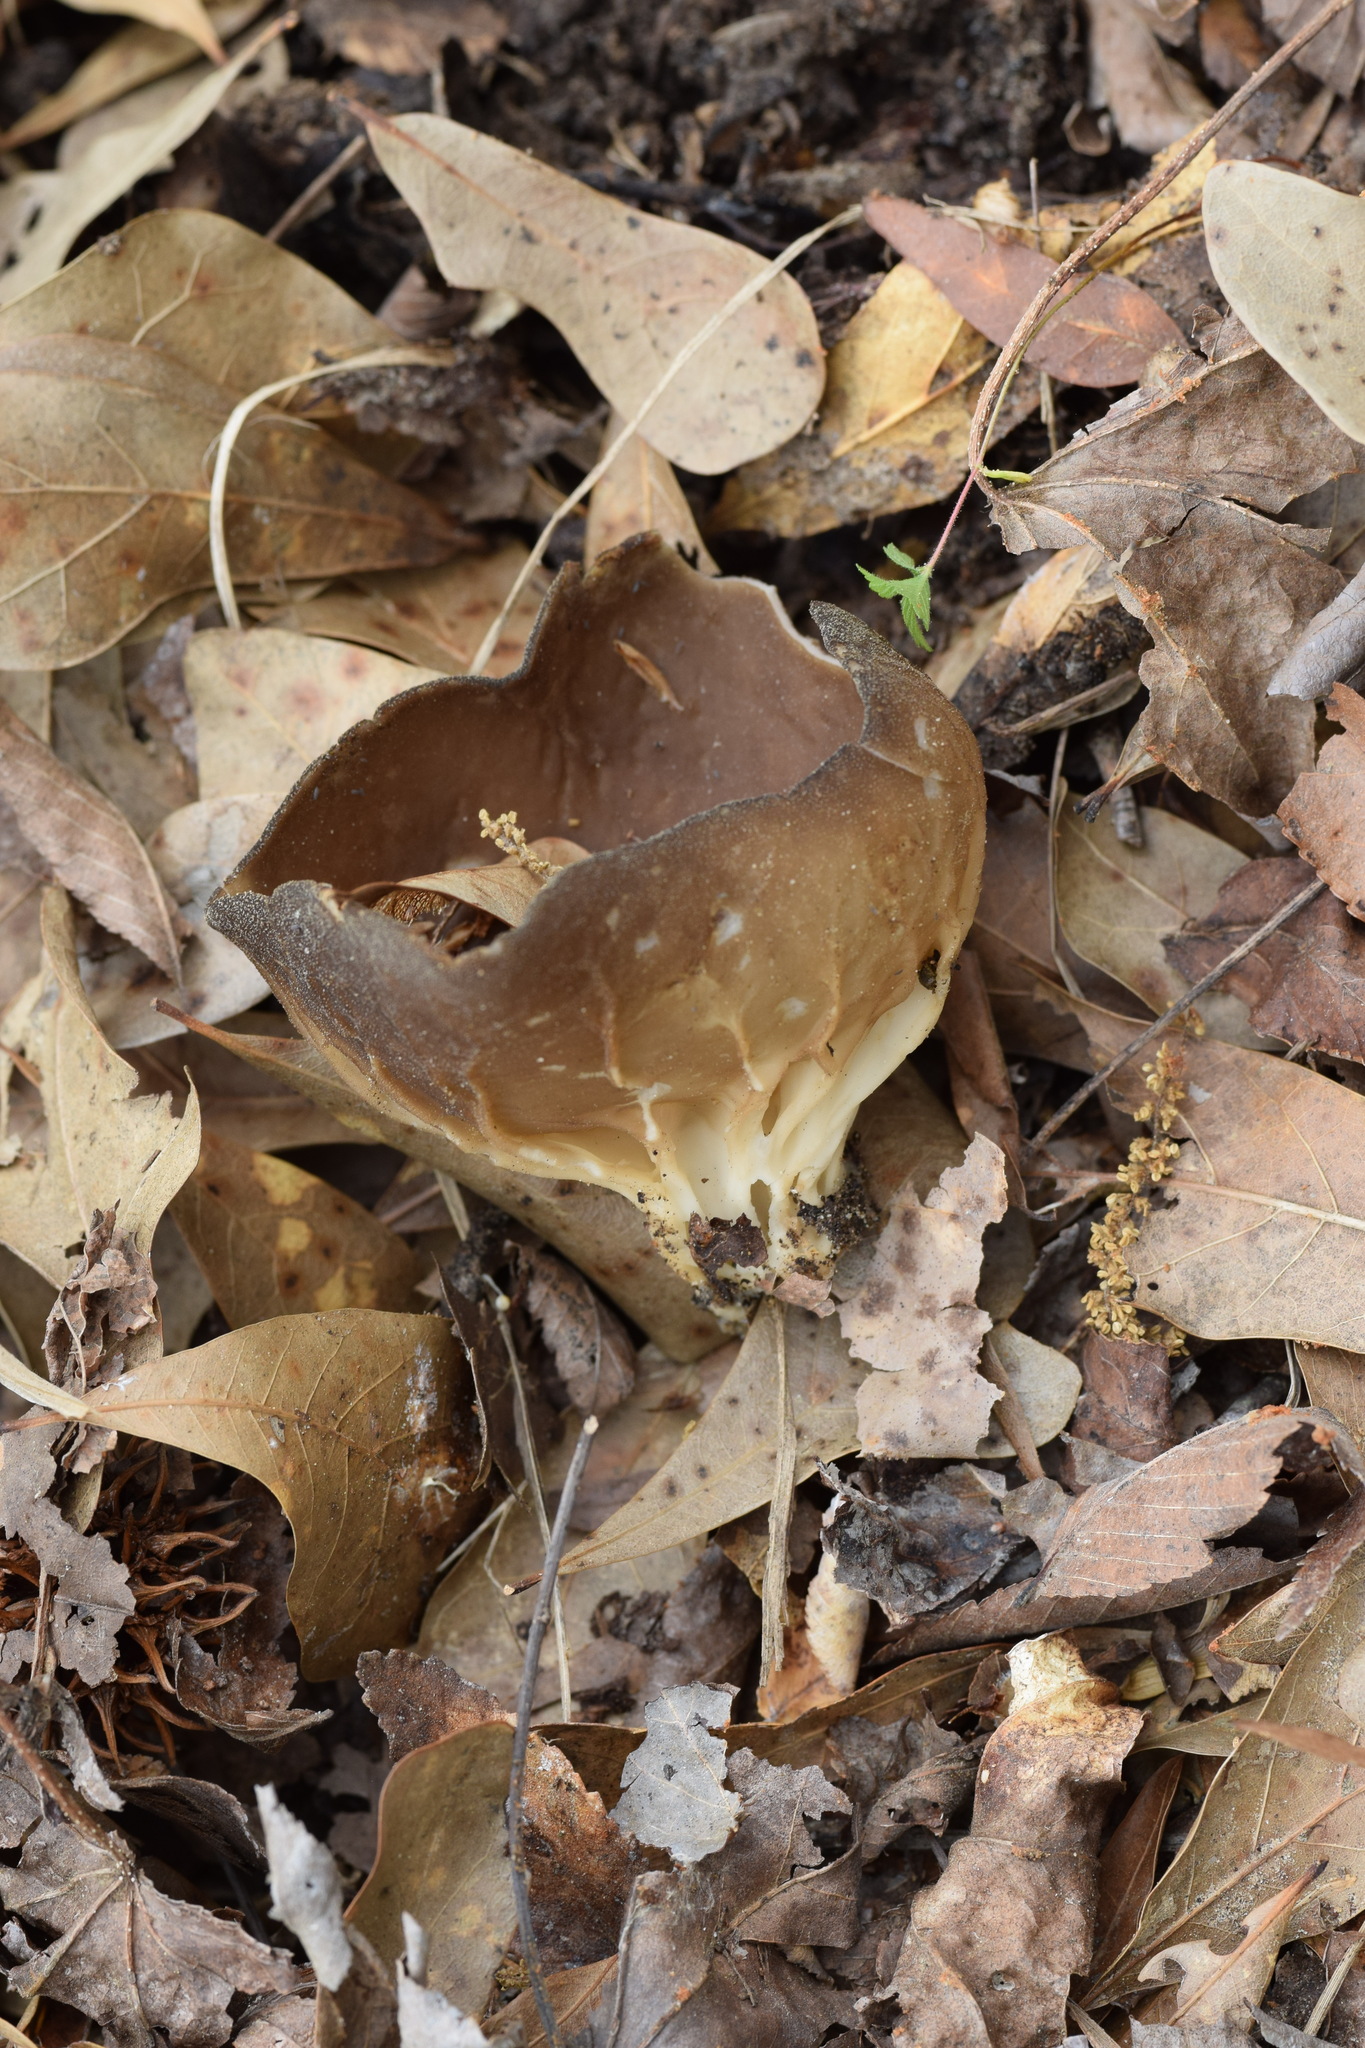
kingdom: Fungi
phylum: Ascomycota
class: Pezizomycetes
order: Pezizales
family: Helvellaceae
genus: Helvella
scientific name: Helvella acetabulum
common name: Vinegar cup
